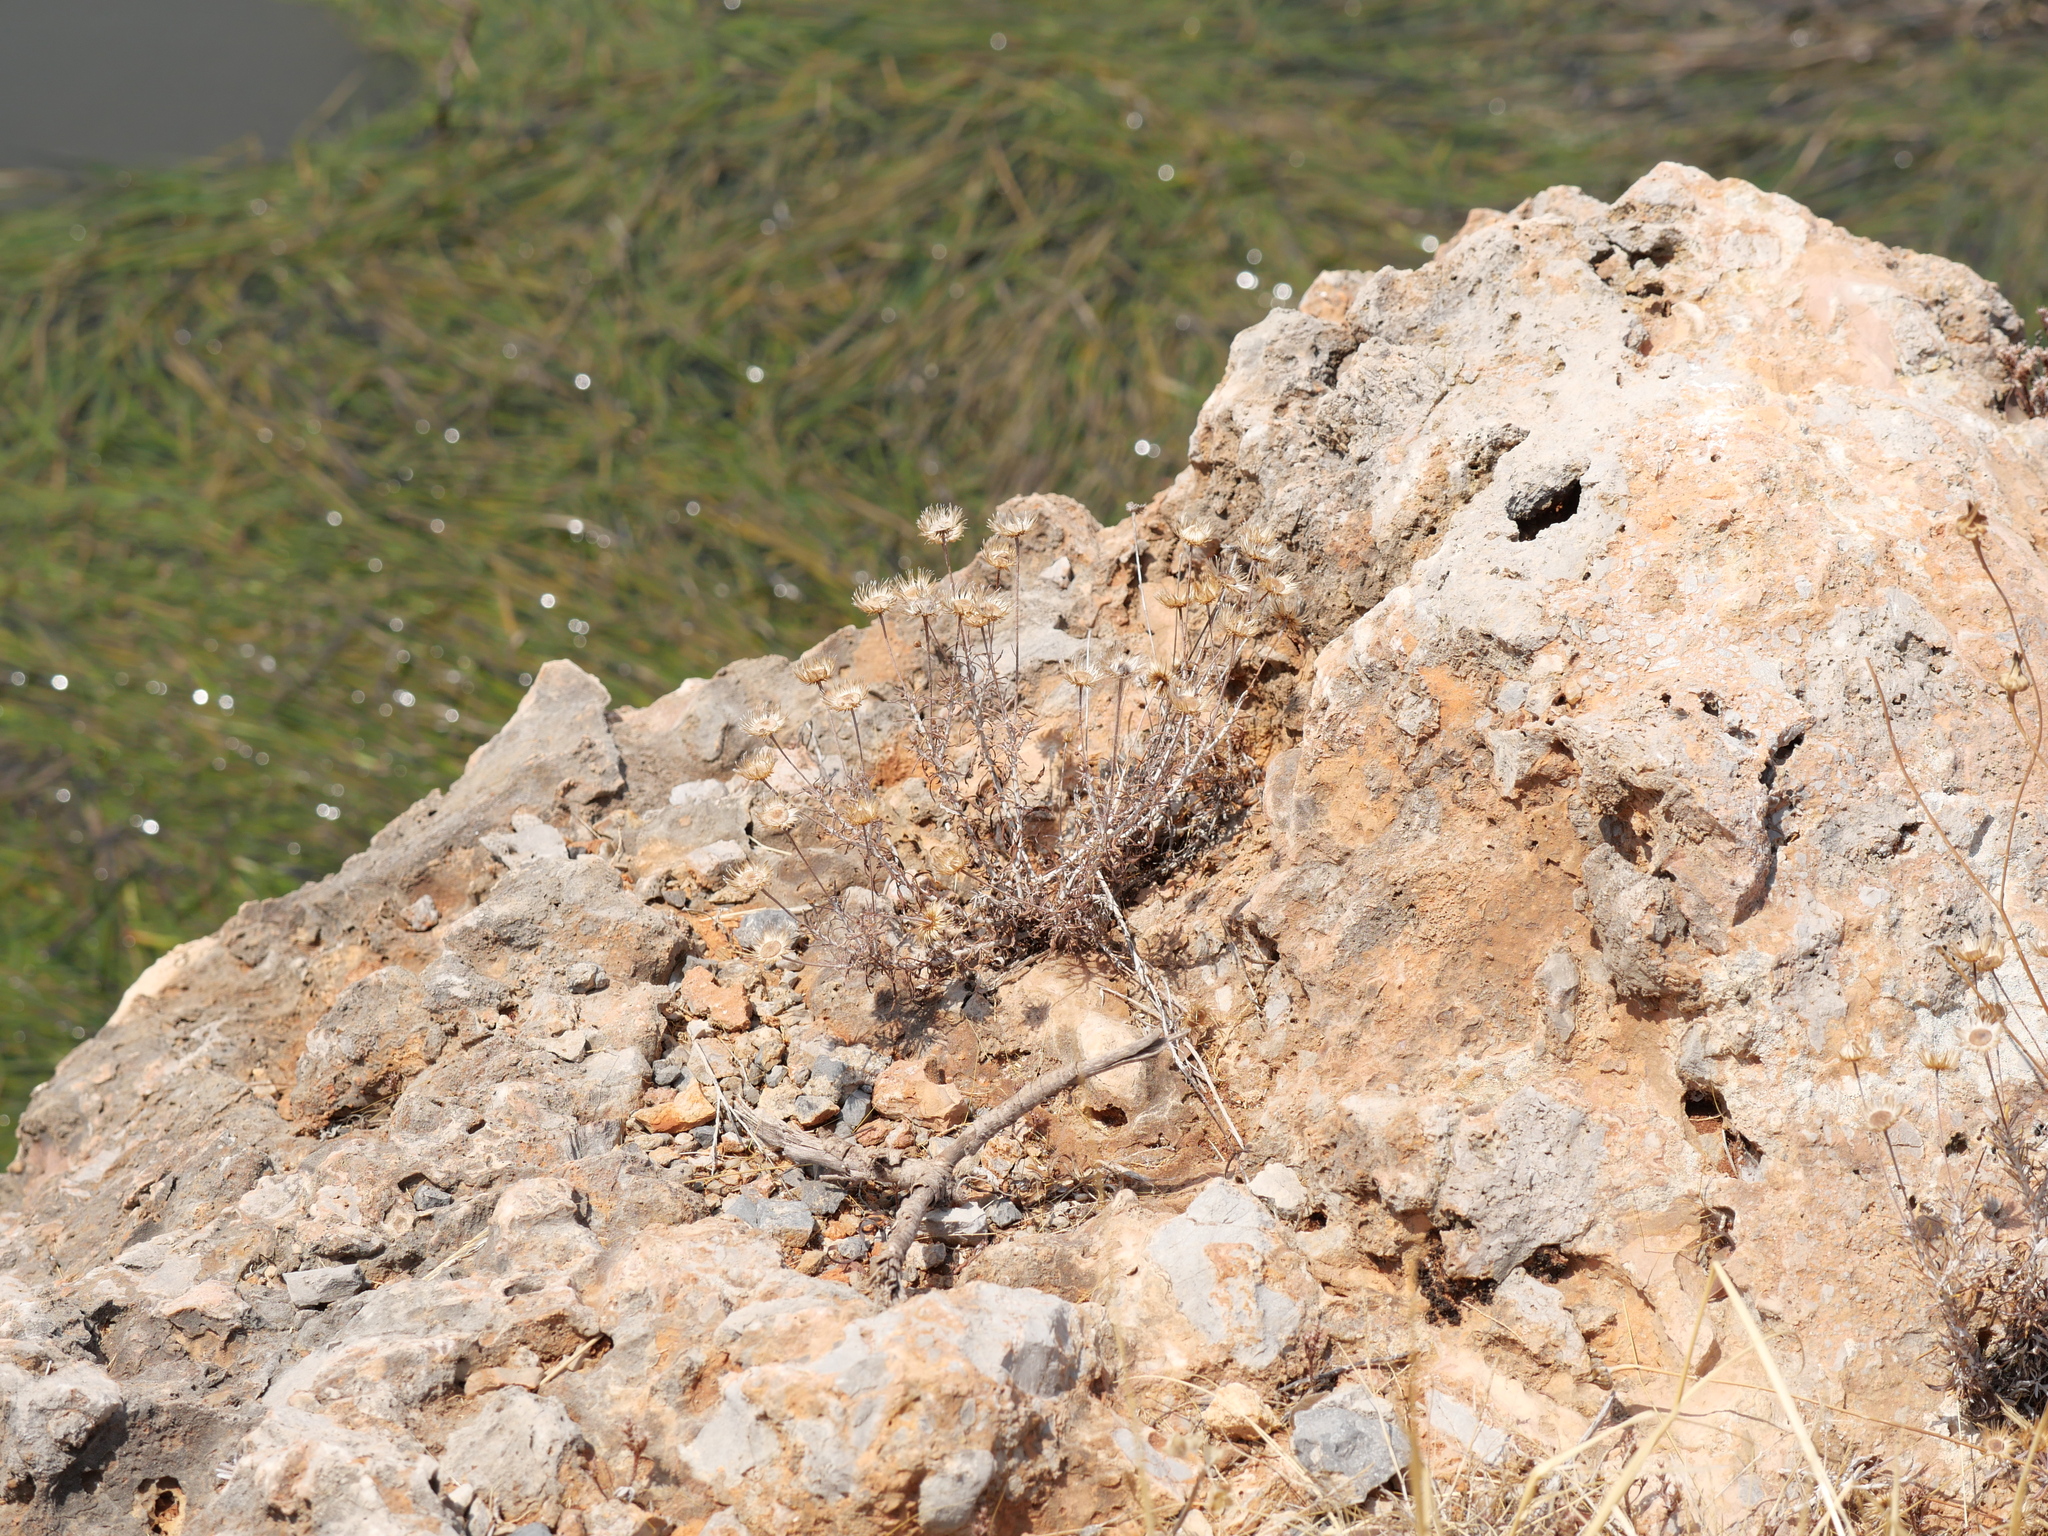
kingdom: Plantae
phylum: Tracheophyta
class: Magnoliopsida
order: Asterales
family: Asteraceae
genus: Phagnalon
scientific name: Phagnalon
